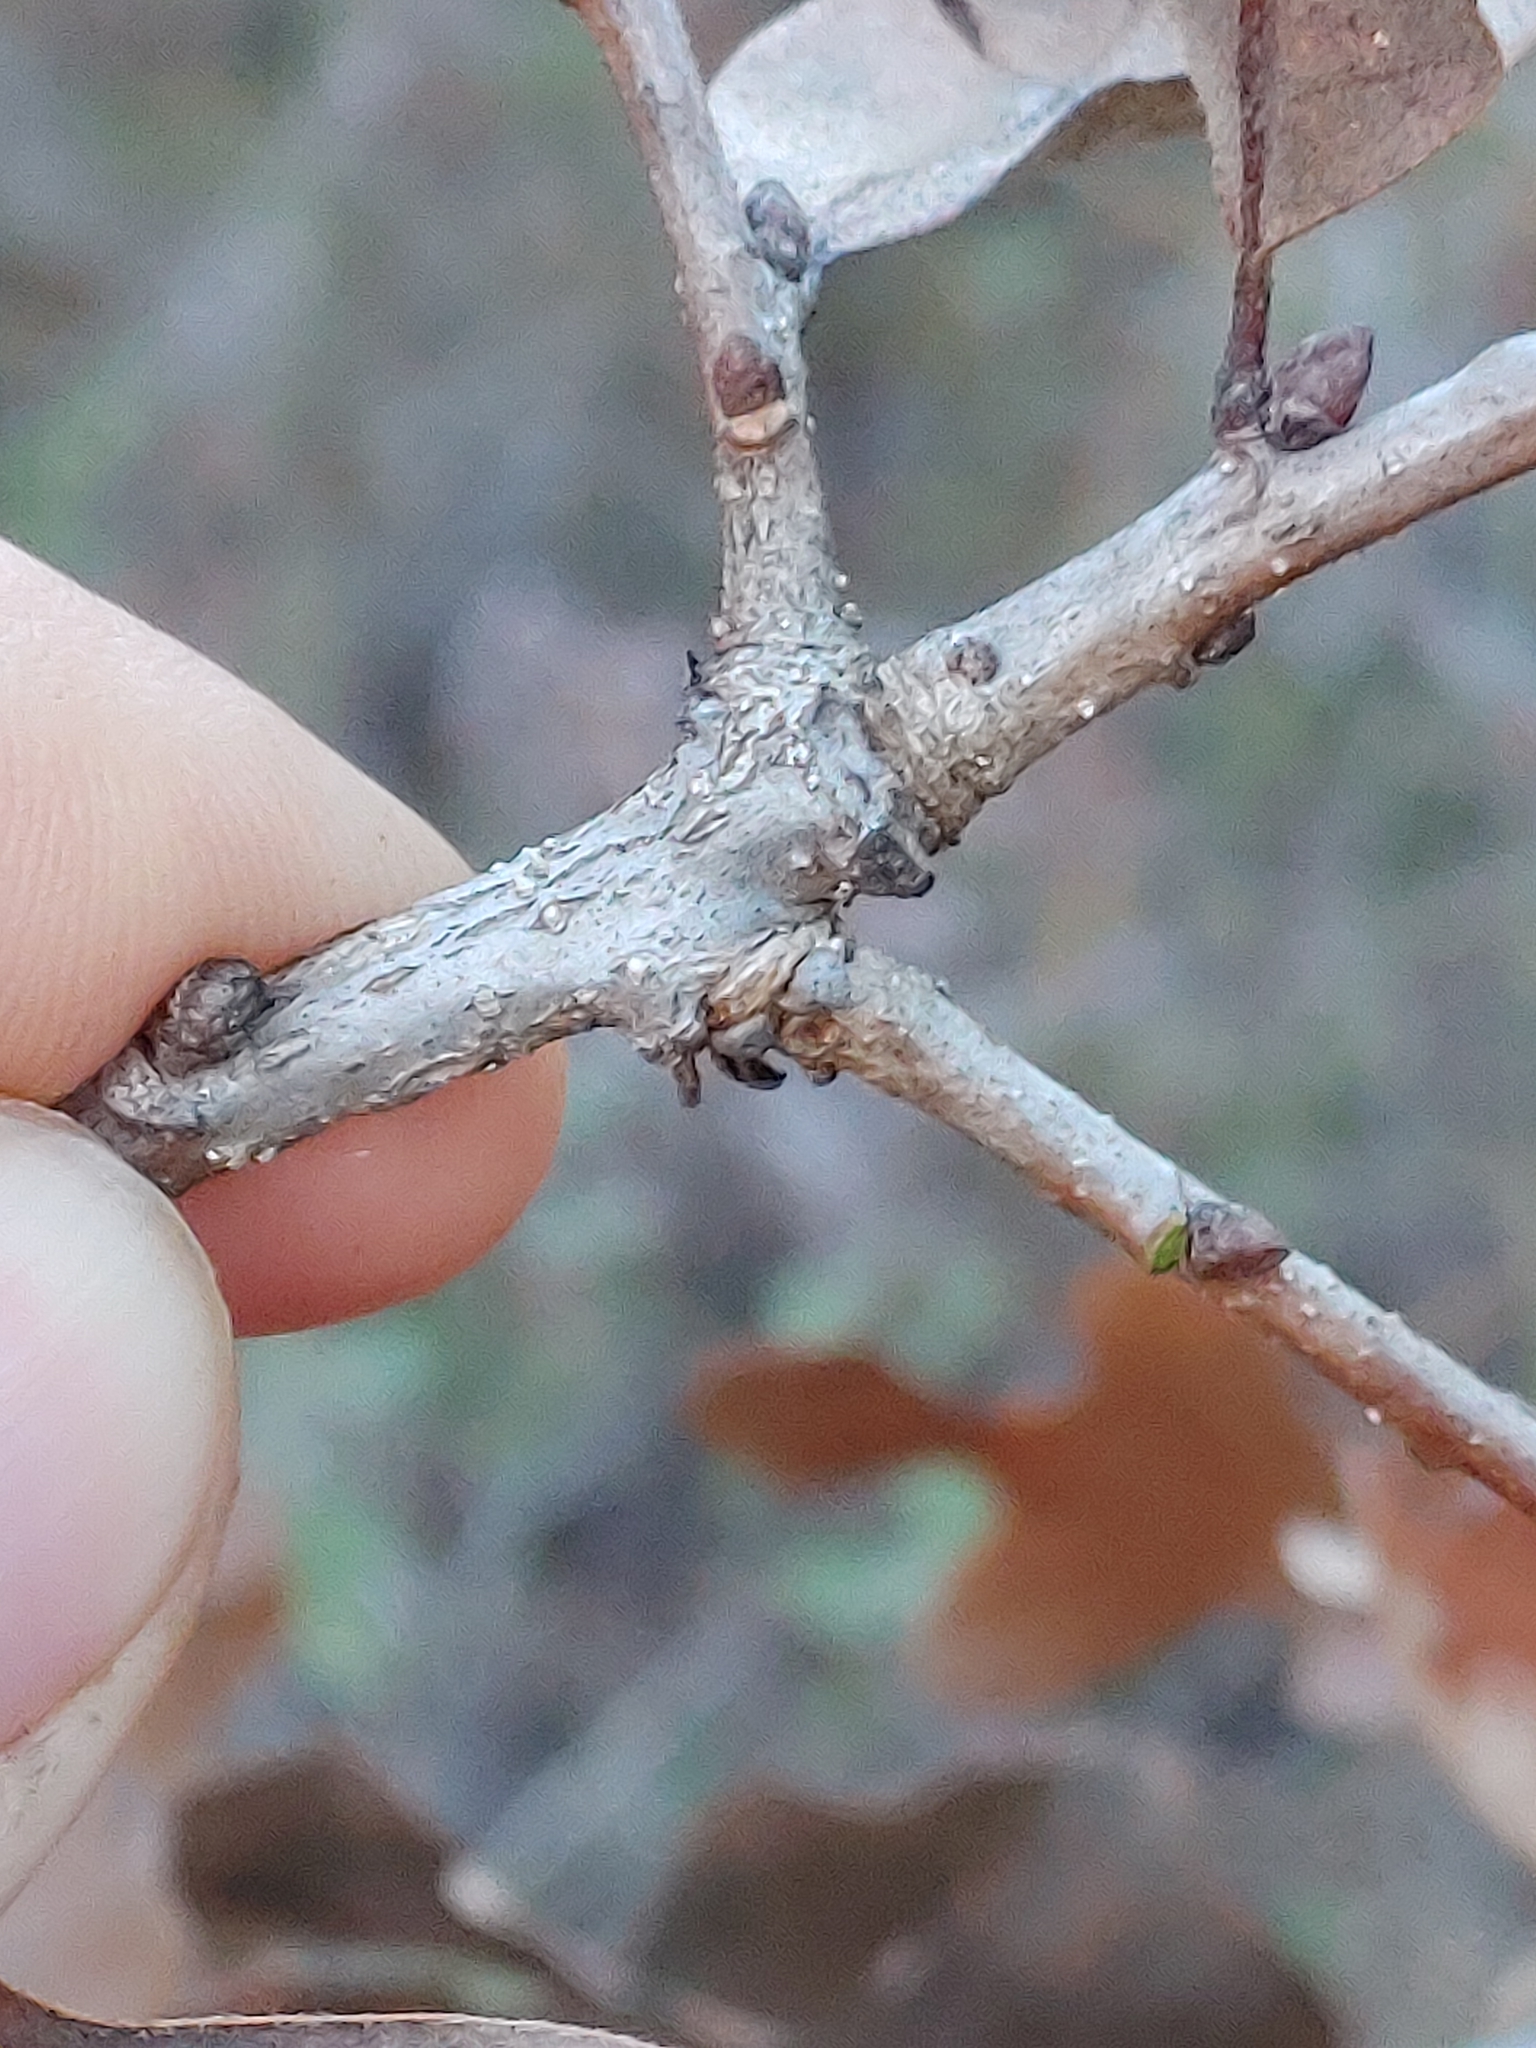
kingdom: Plantae
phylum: Tracheophyta
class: Magnoliopsida
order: Fagales
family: Fagaceae
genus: Quercus
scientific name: Quercus margaretiae
